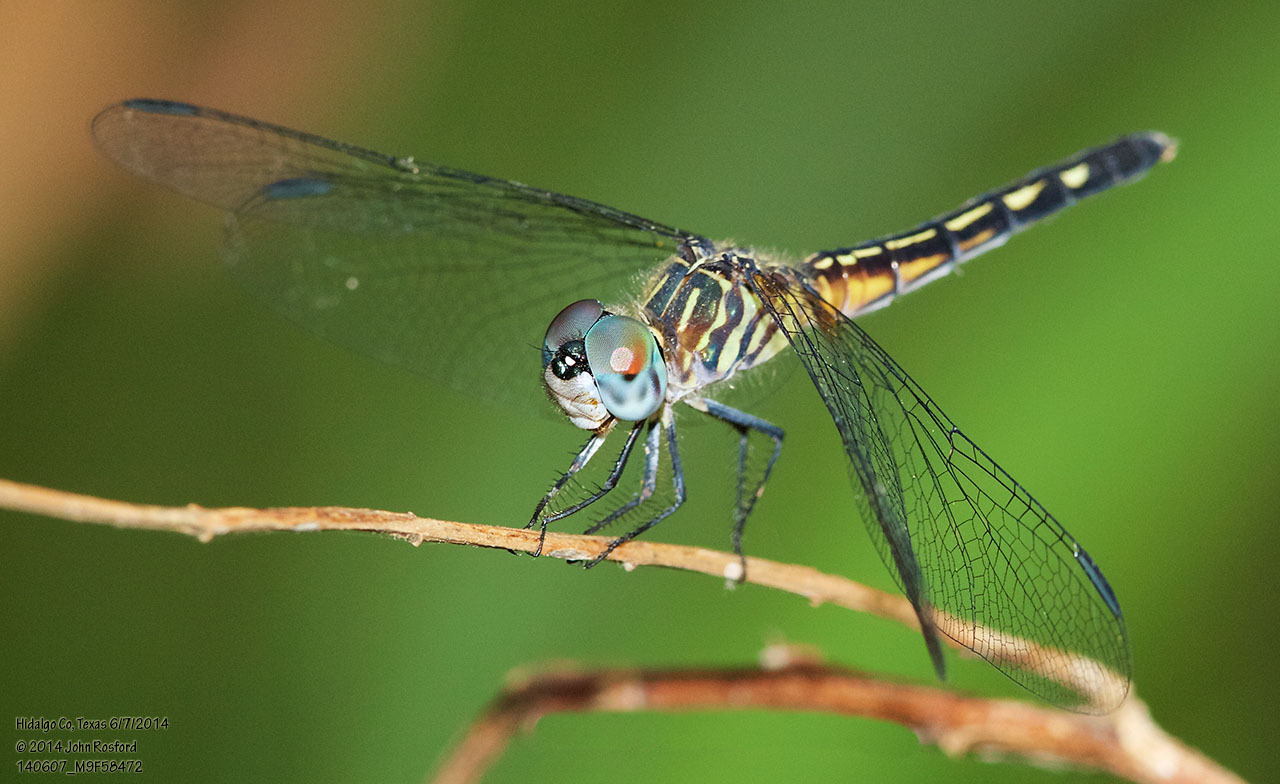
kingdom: Animalia
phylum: Arthropoda
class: Insecta
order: Odonata
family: Libellulidae
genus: Pachydiplax
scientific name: Pachydiplax longipennis
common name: Blue dasher
